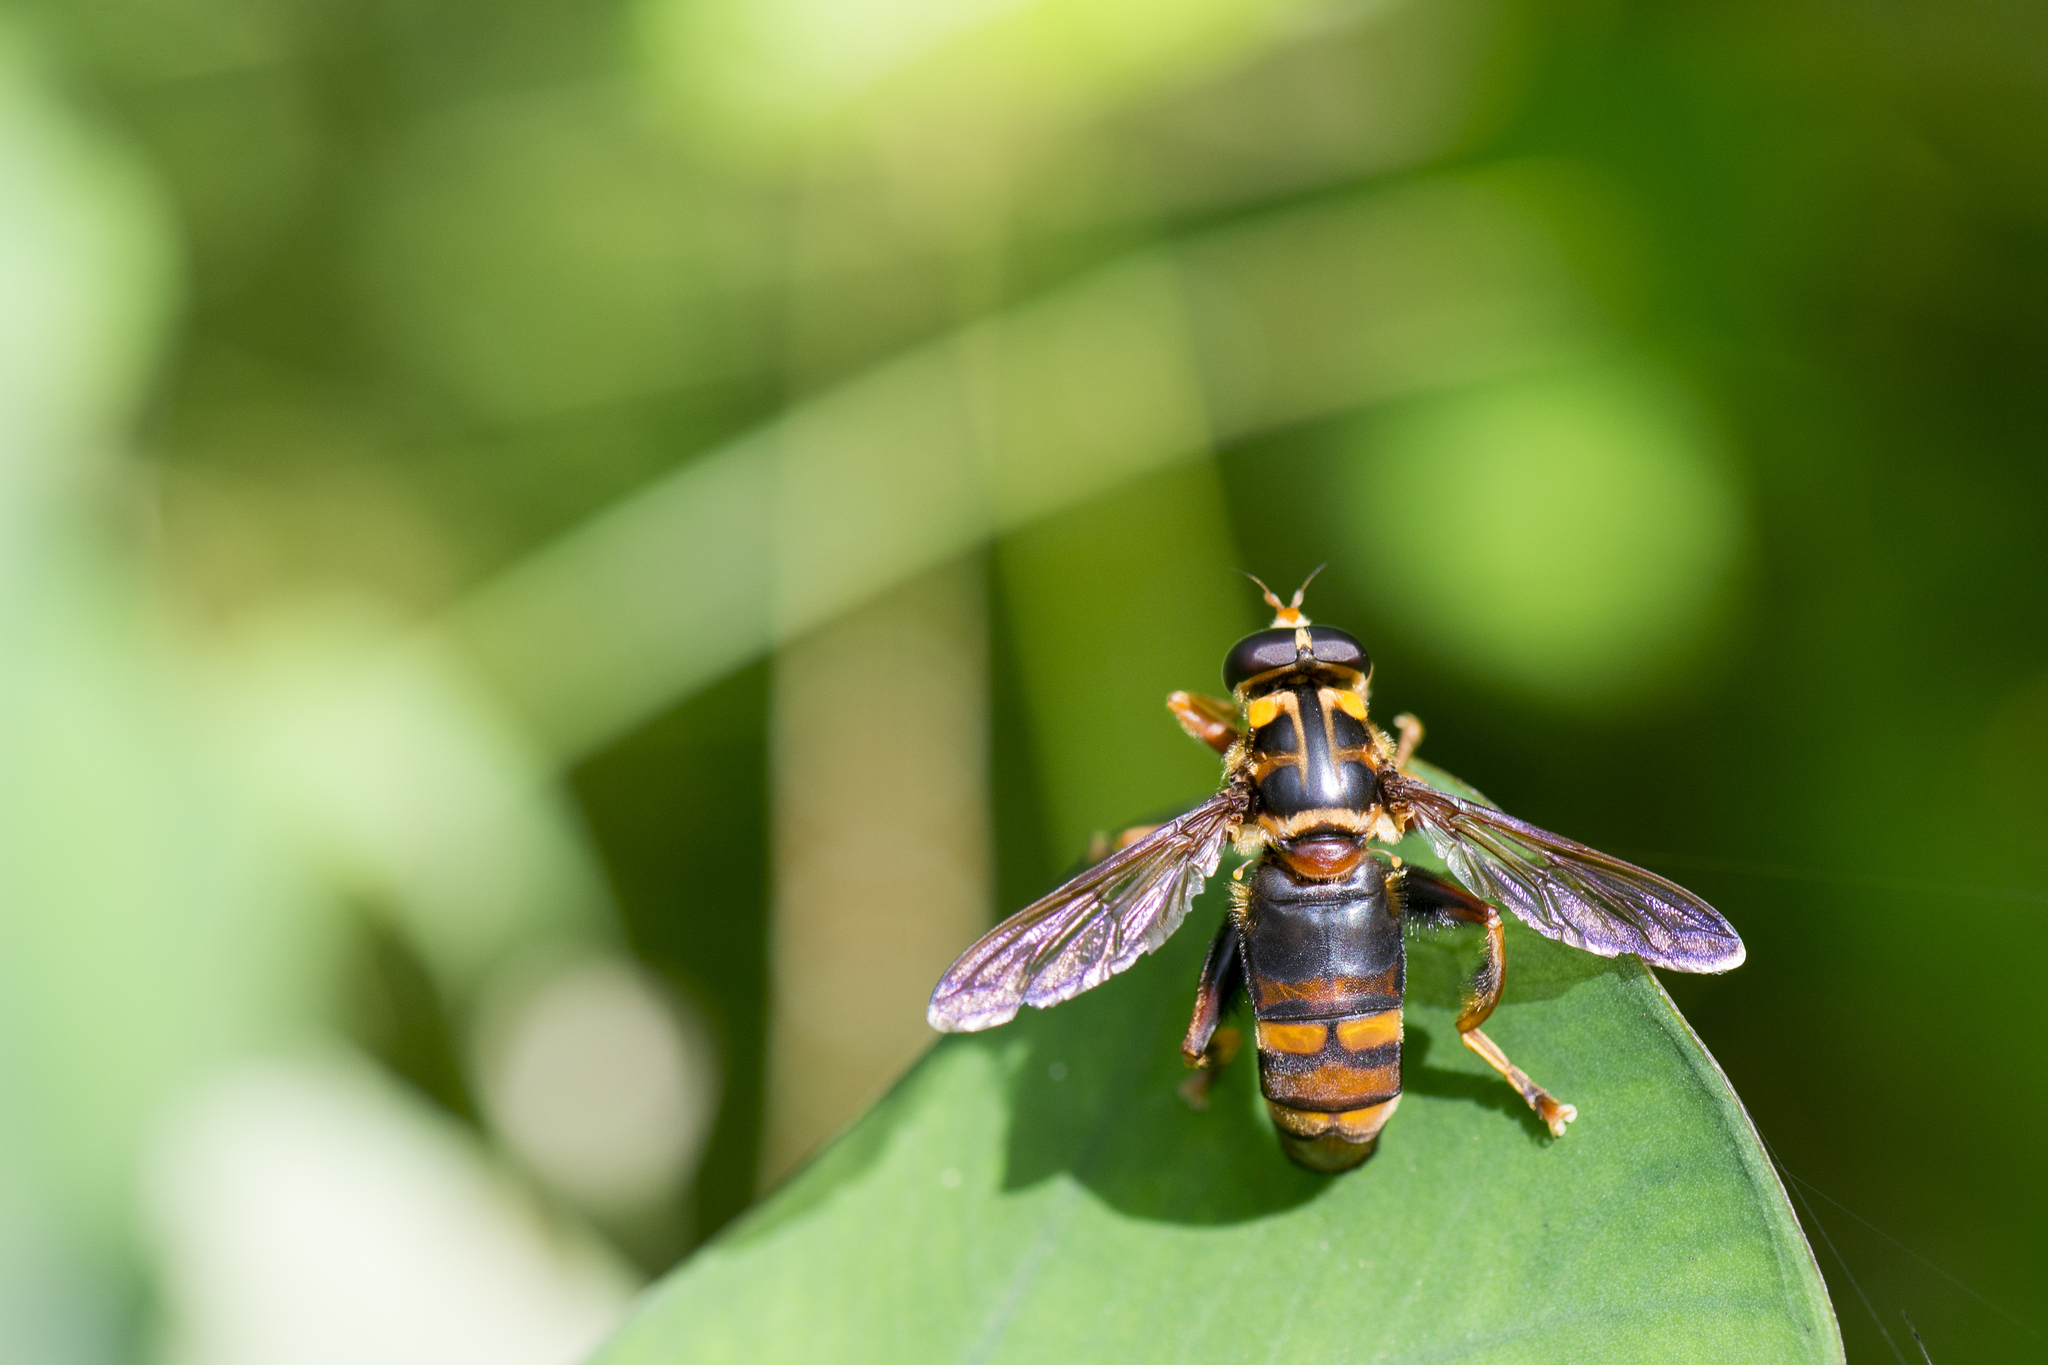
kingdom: Animalia
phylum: Arthropoda
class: Insecta
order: Diptera
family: Syrphidae
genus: Milesia
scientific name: Milesia fissipennis
